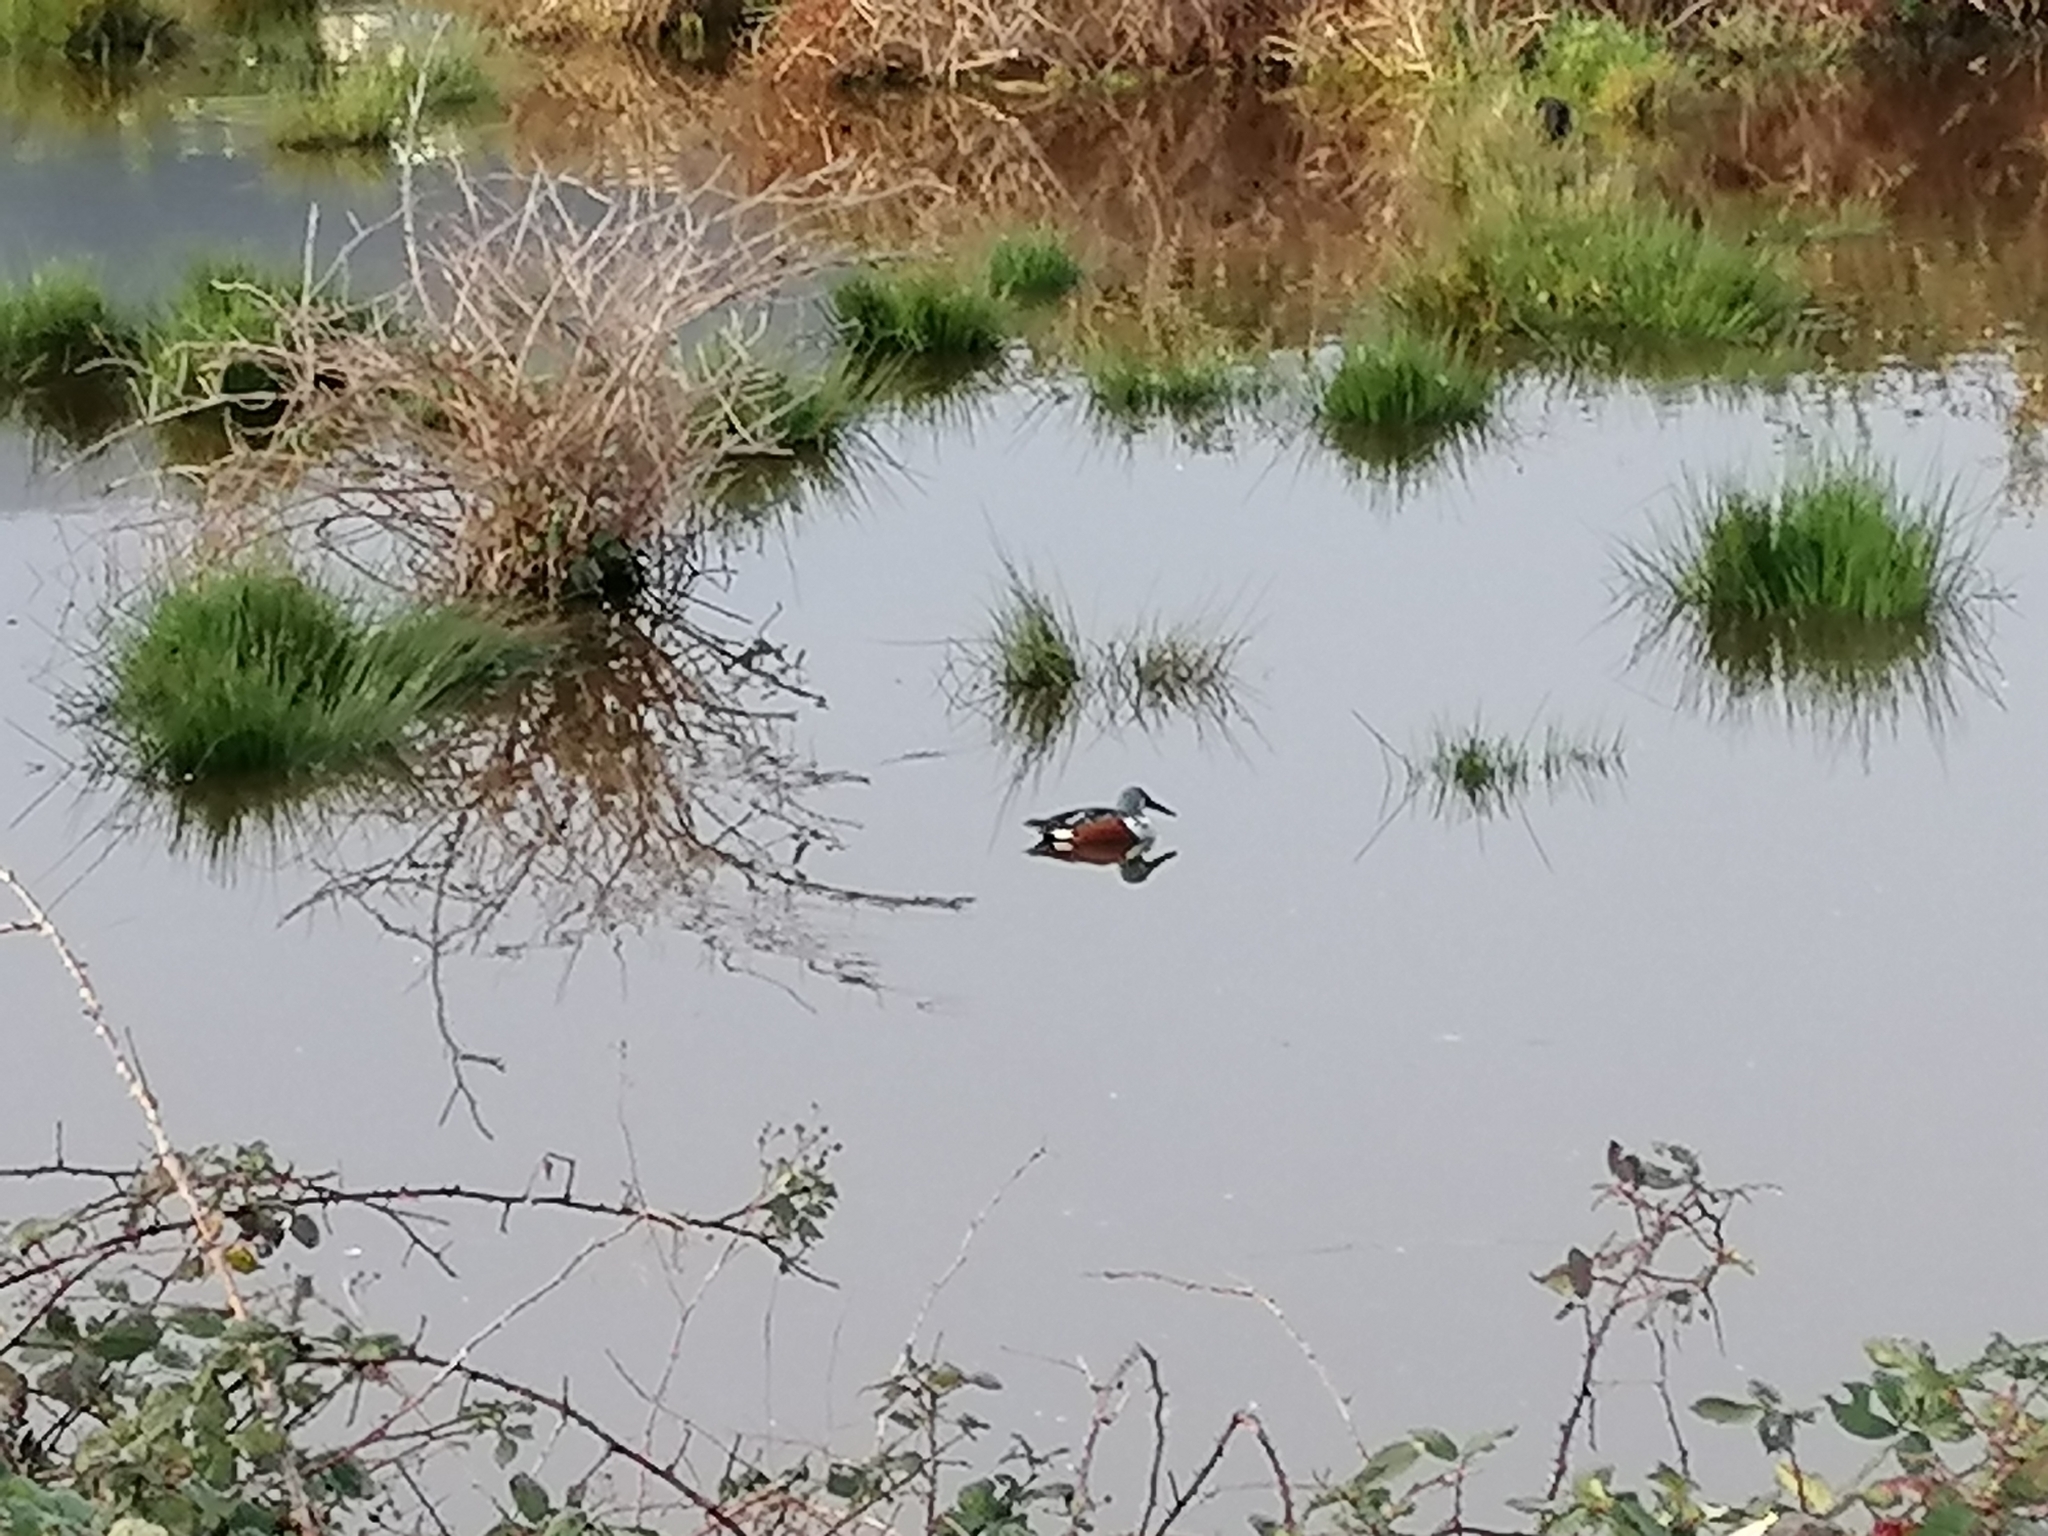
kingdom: Animalia
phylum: Chordata
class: Aves
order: Anseriformes
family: Anatidae
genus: Spatula
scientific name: Spatula rhynchotis
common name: Australian shoveler
